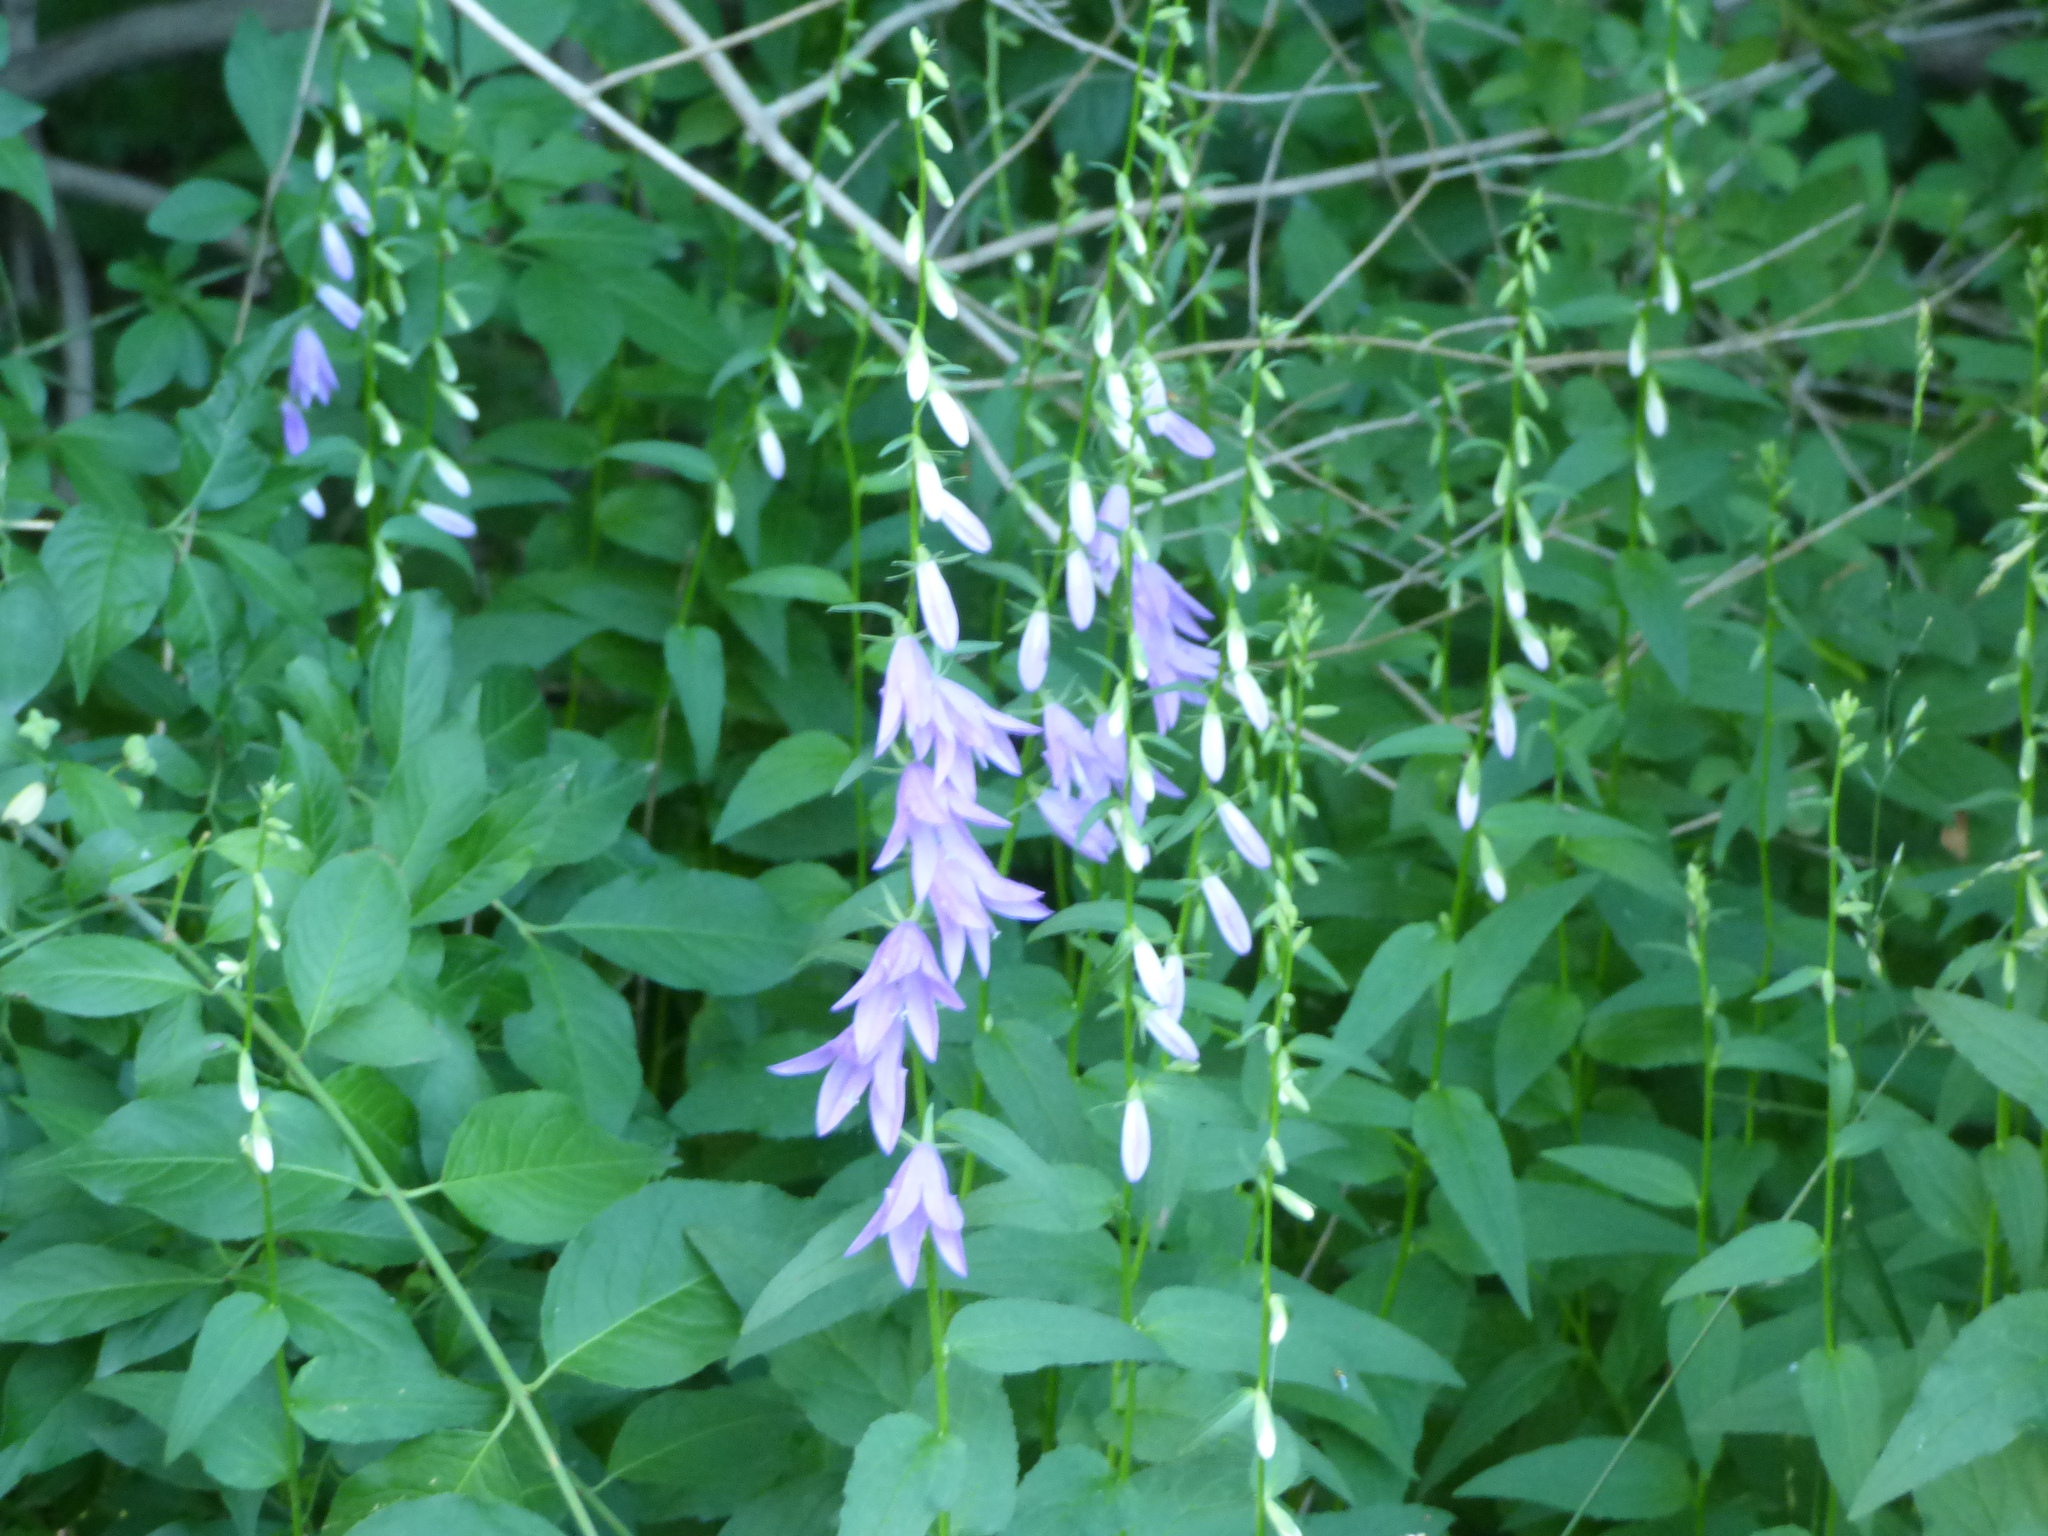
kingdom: Plantae
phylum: Tracheophyta
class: Magnoliopsida
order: Asterales
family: Campanulaceae
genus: Campanula
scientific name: Campanula rapunculoides
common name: Creeping bellflower
